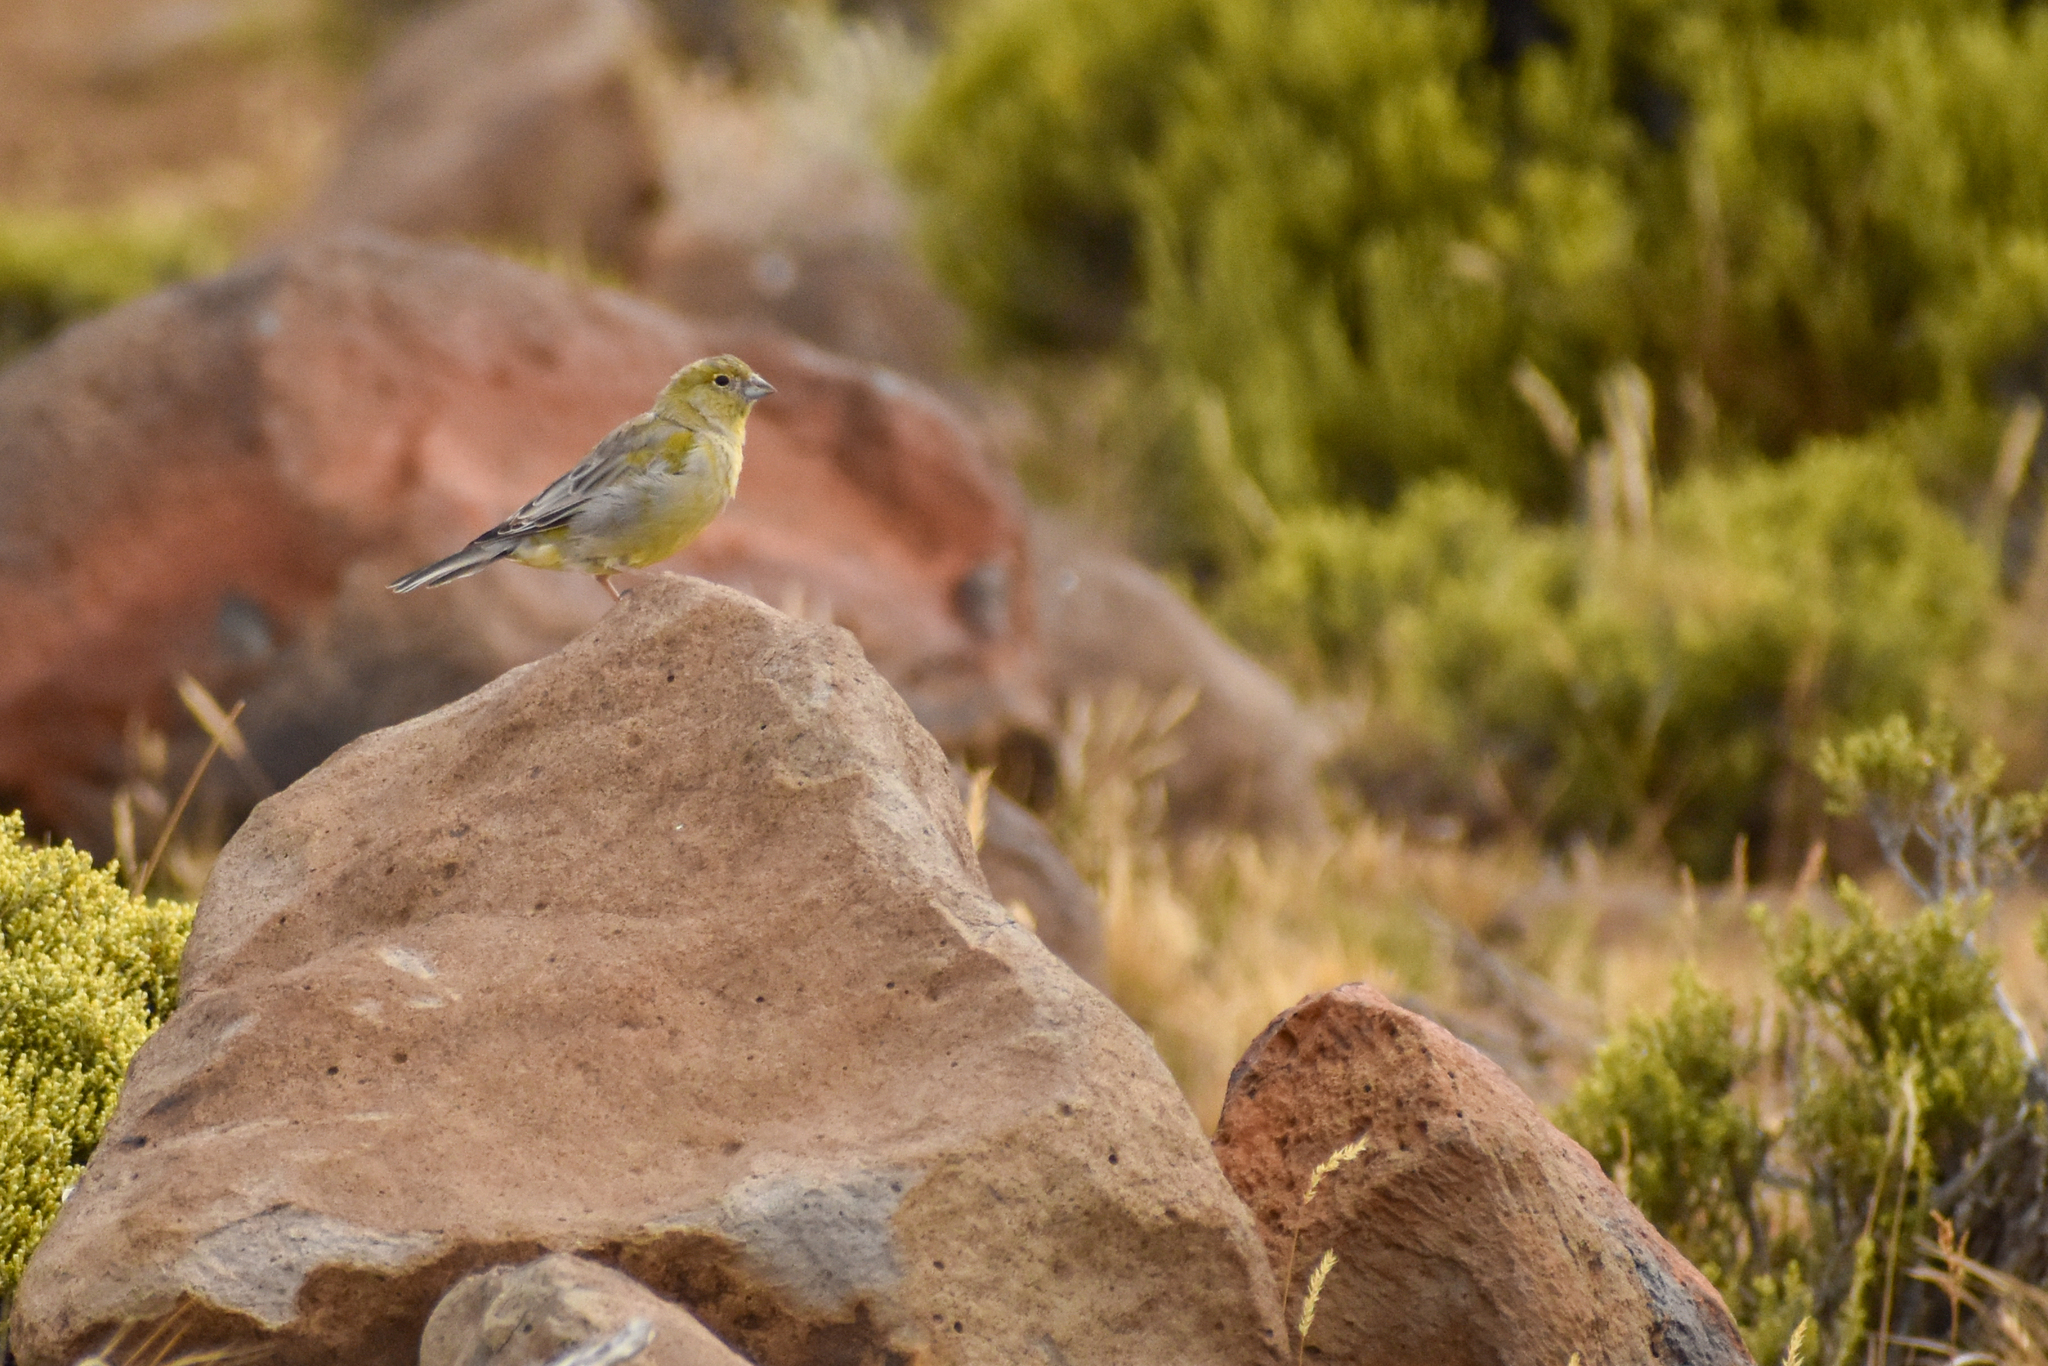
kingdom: Animalia
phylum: Chordata
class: Aves
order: Passeriformes
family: Thraupidae
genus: Sicalis
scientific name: Sicalis lebruni
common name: Patagonian yellow finch
